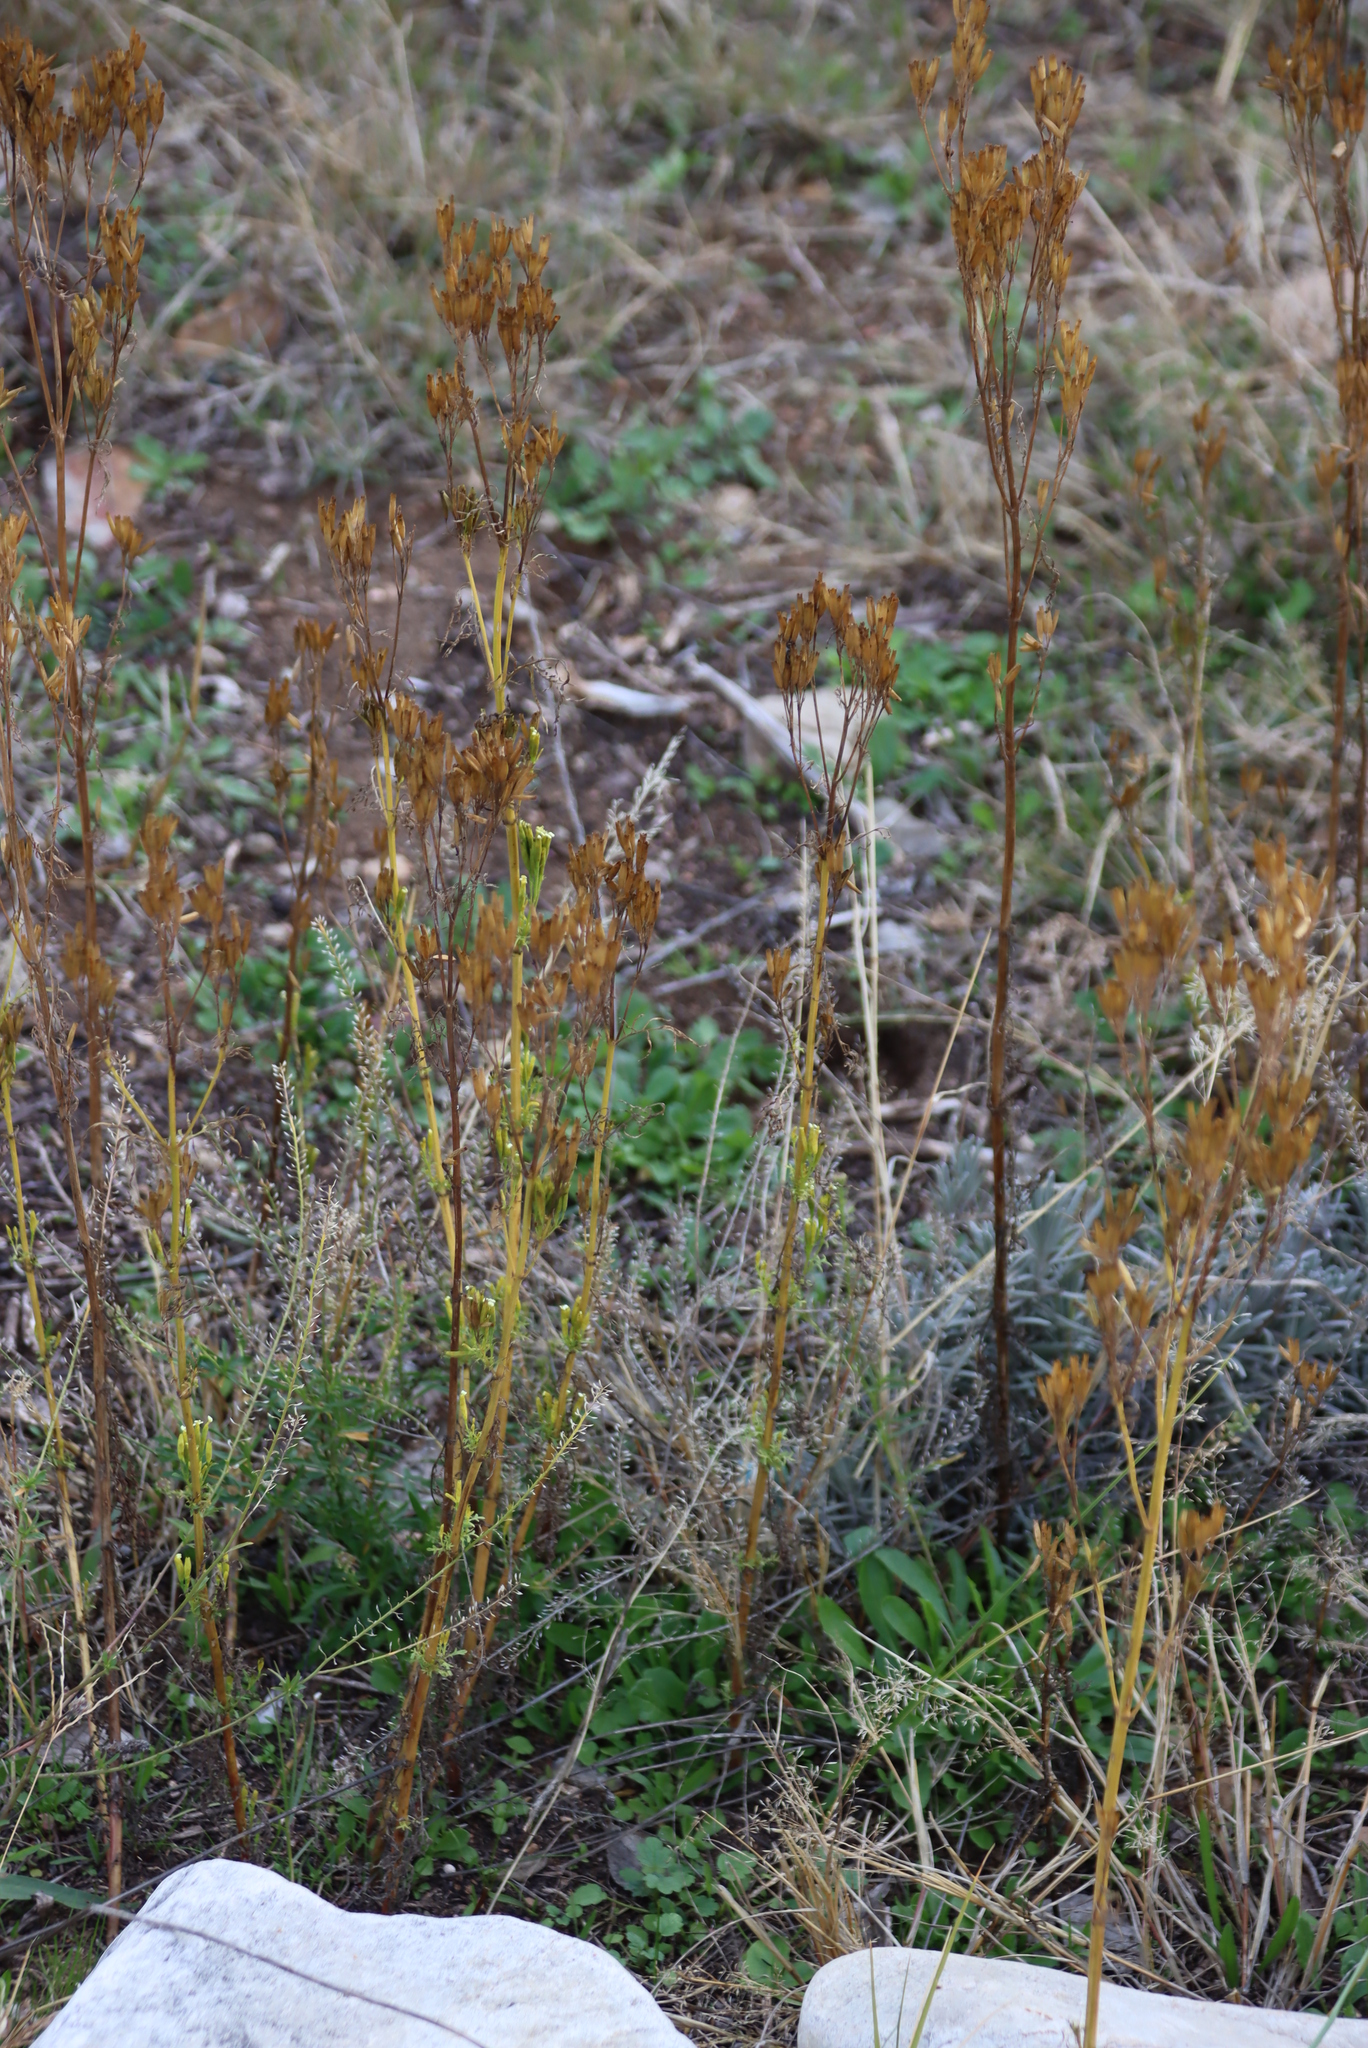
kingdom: Plantae
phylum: Tracheophyta
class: Magnoliopsida
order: Asterales
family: Asteraceae
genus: Tagetes
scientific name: Tagetes minuta
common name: Muster john henry
